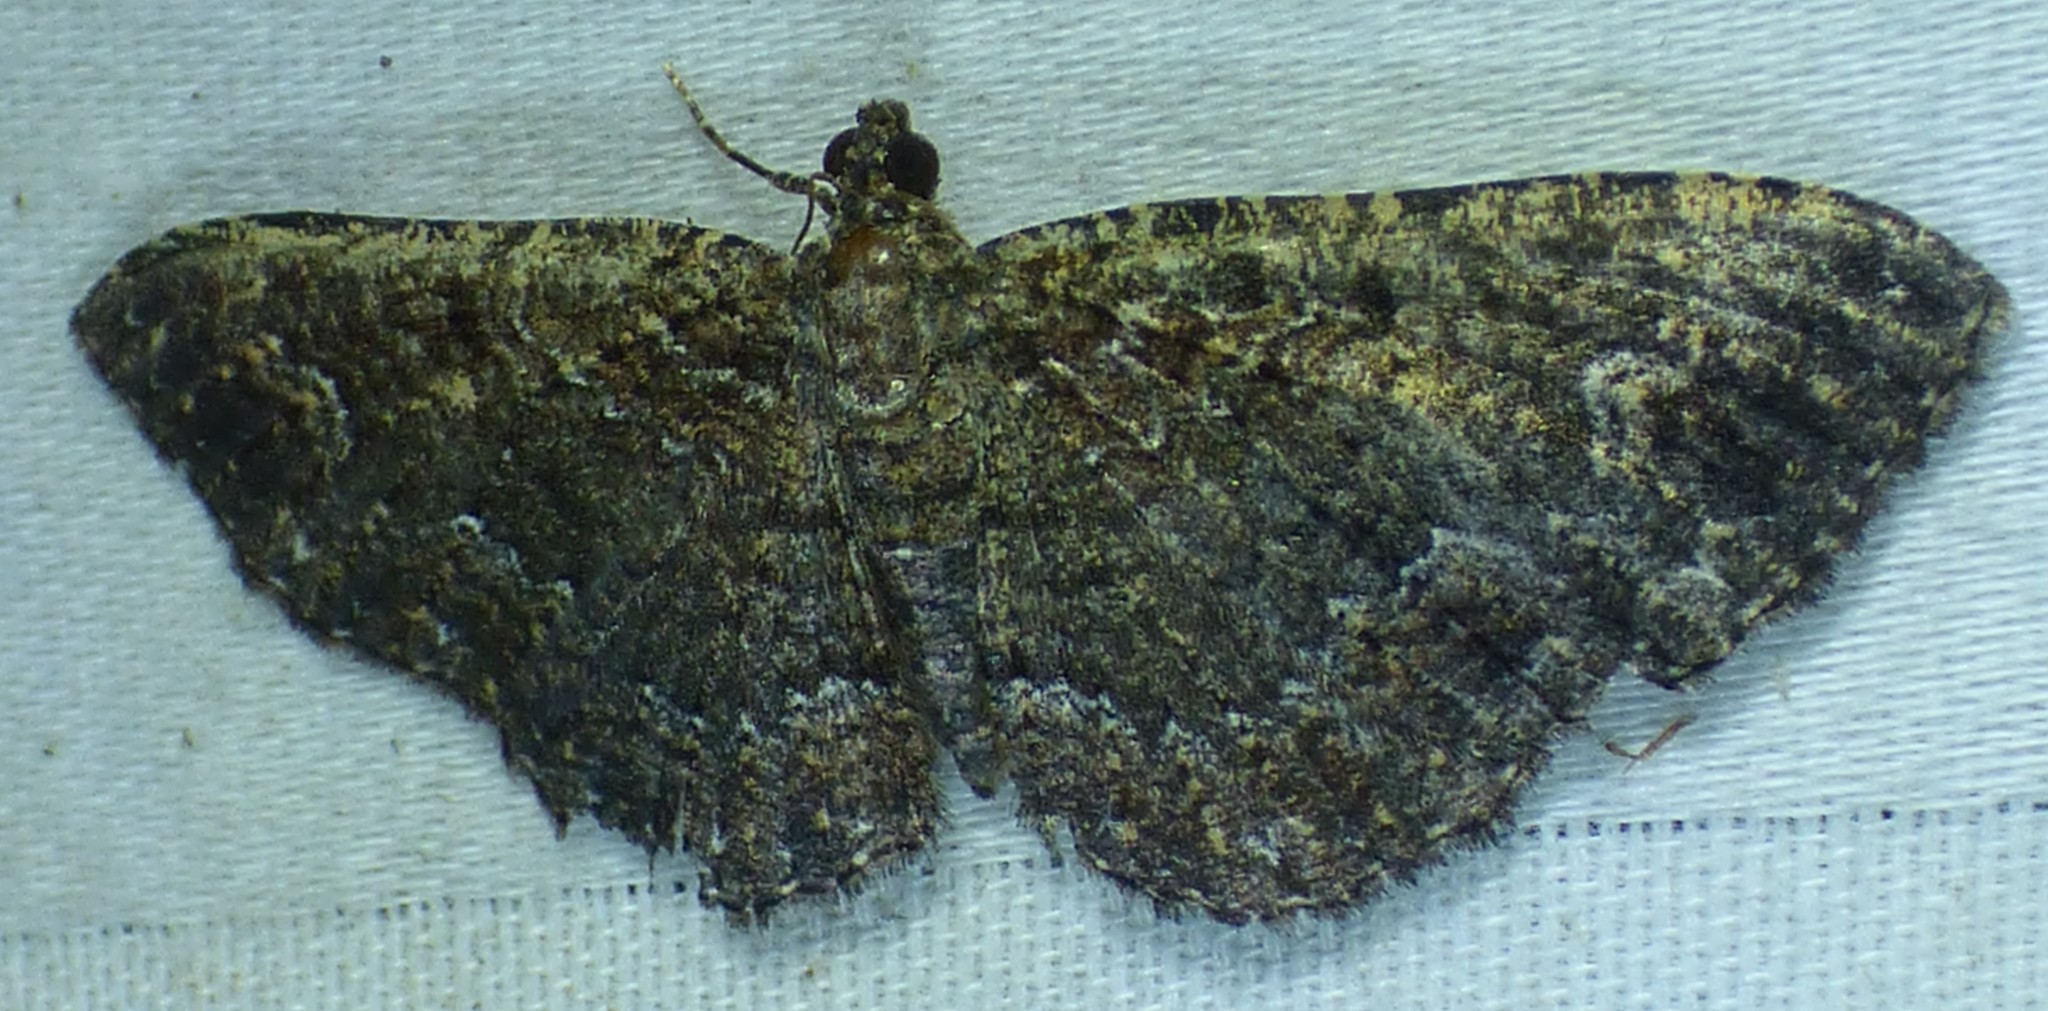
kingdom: Animalia
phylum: Arthropoda
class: Insecta
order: Lepidoptera
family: Geometridae
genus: Disclisioprocta
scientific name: Disclisioprocta stellata
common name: Somber carpet
